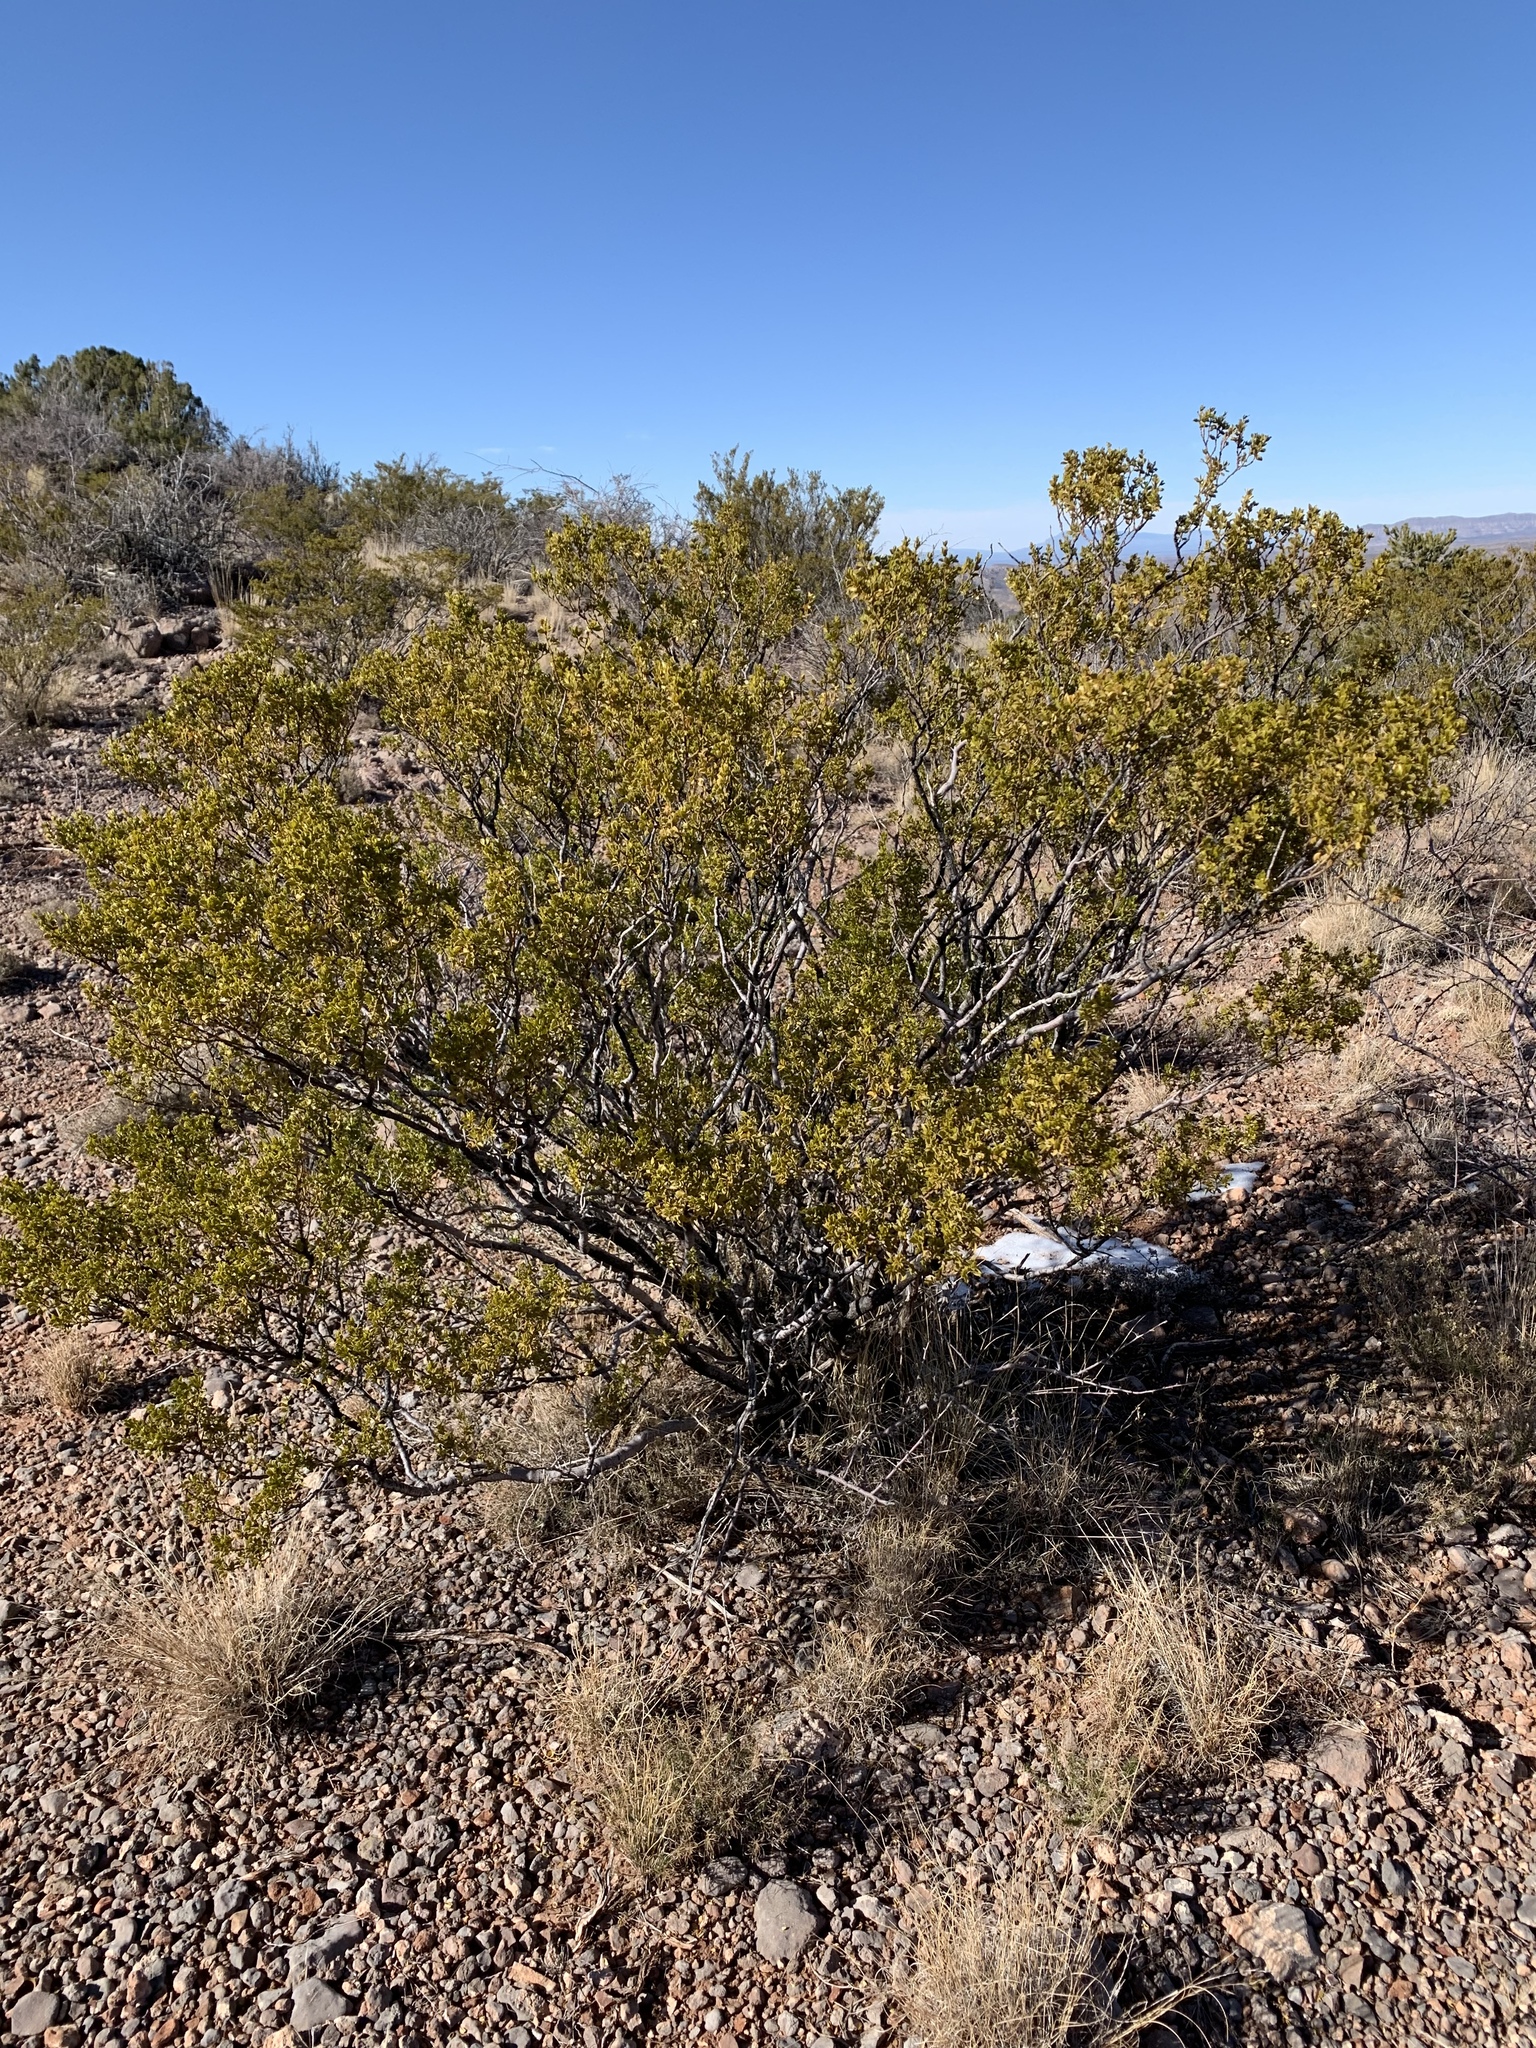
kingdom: Plantae
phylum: Tracheophyta
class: Magnoliopsida
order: Zygophyllales
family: Zygophyllaceae
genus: Larrea
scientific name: Larrea tridentata
